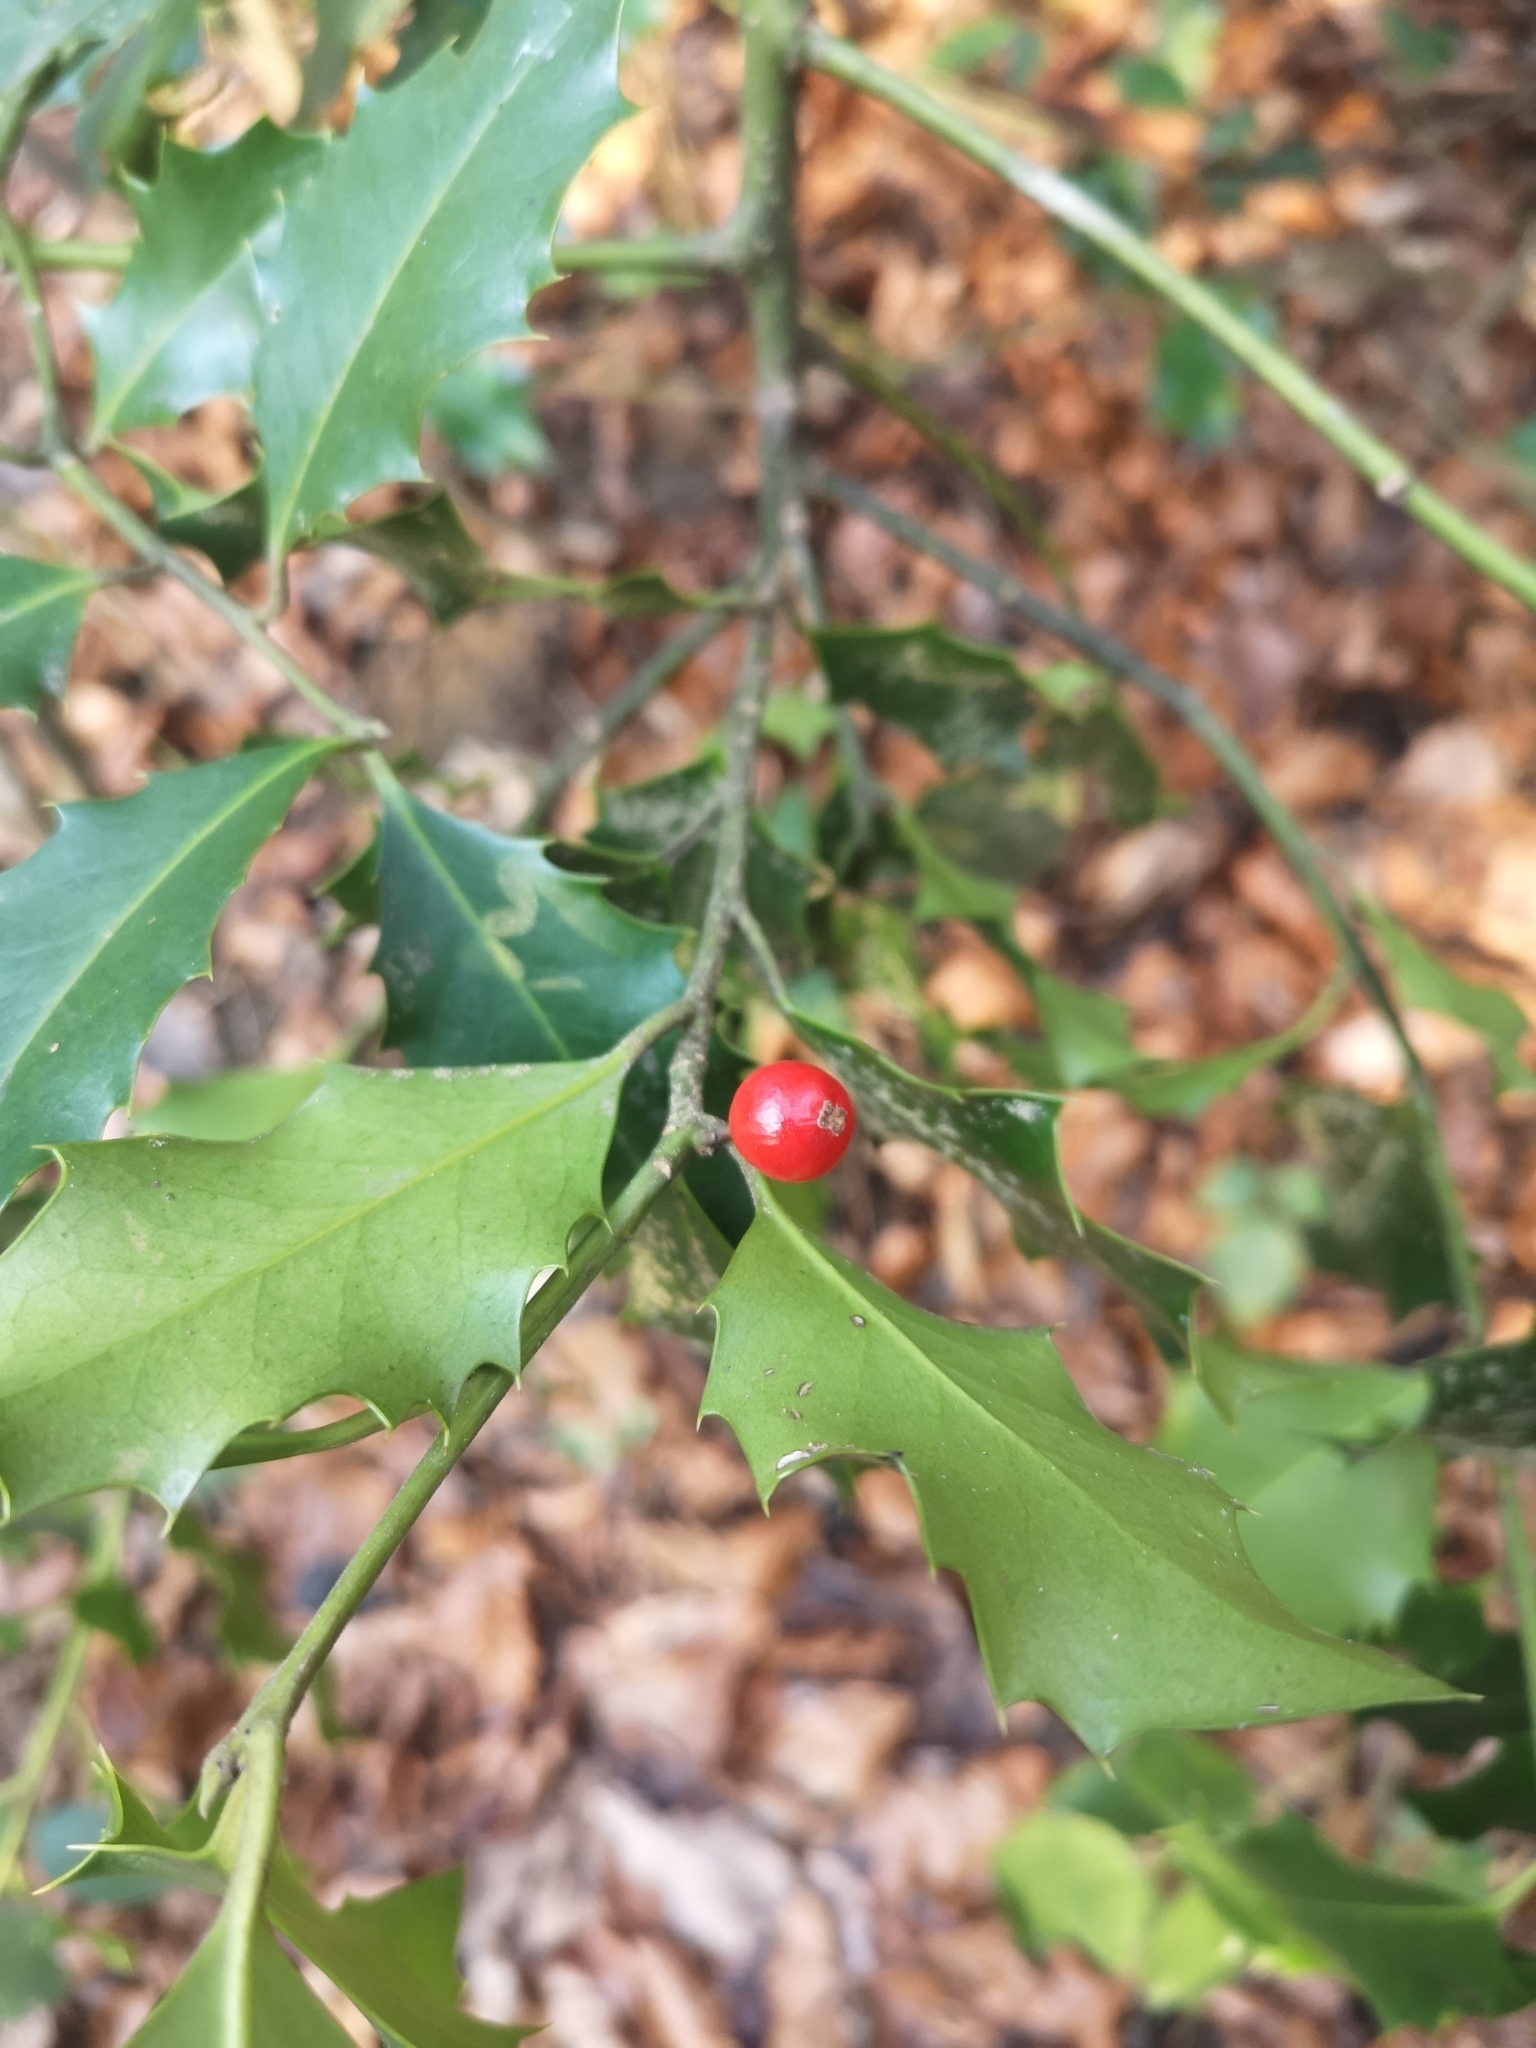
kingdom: Plantae
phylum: Tracheophyta
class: Magnoliopsida
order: Aquifoliales
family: Aquifoliaceae
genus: Ilex
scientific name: Ilex aquifolium
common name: English holly
